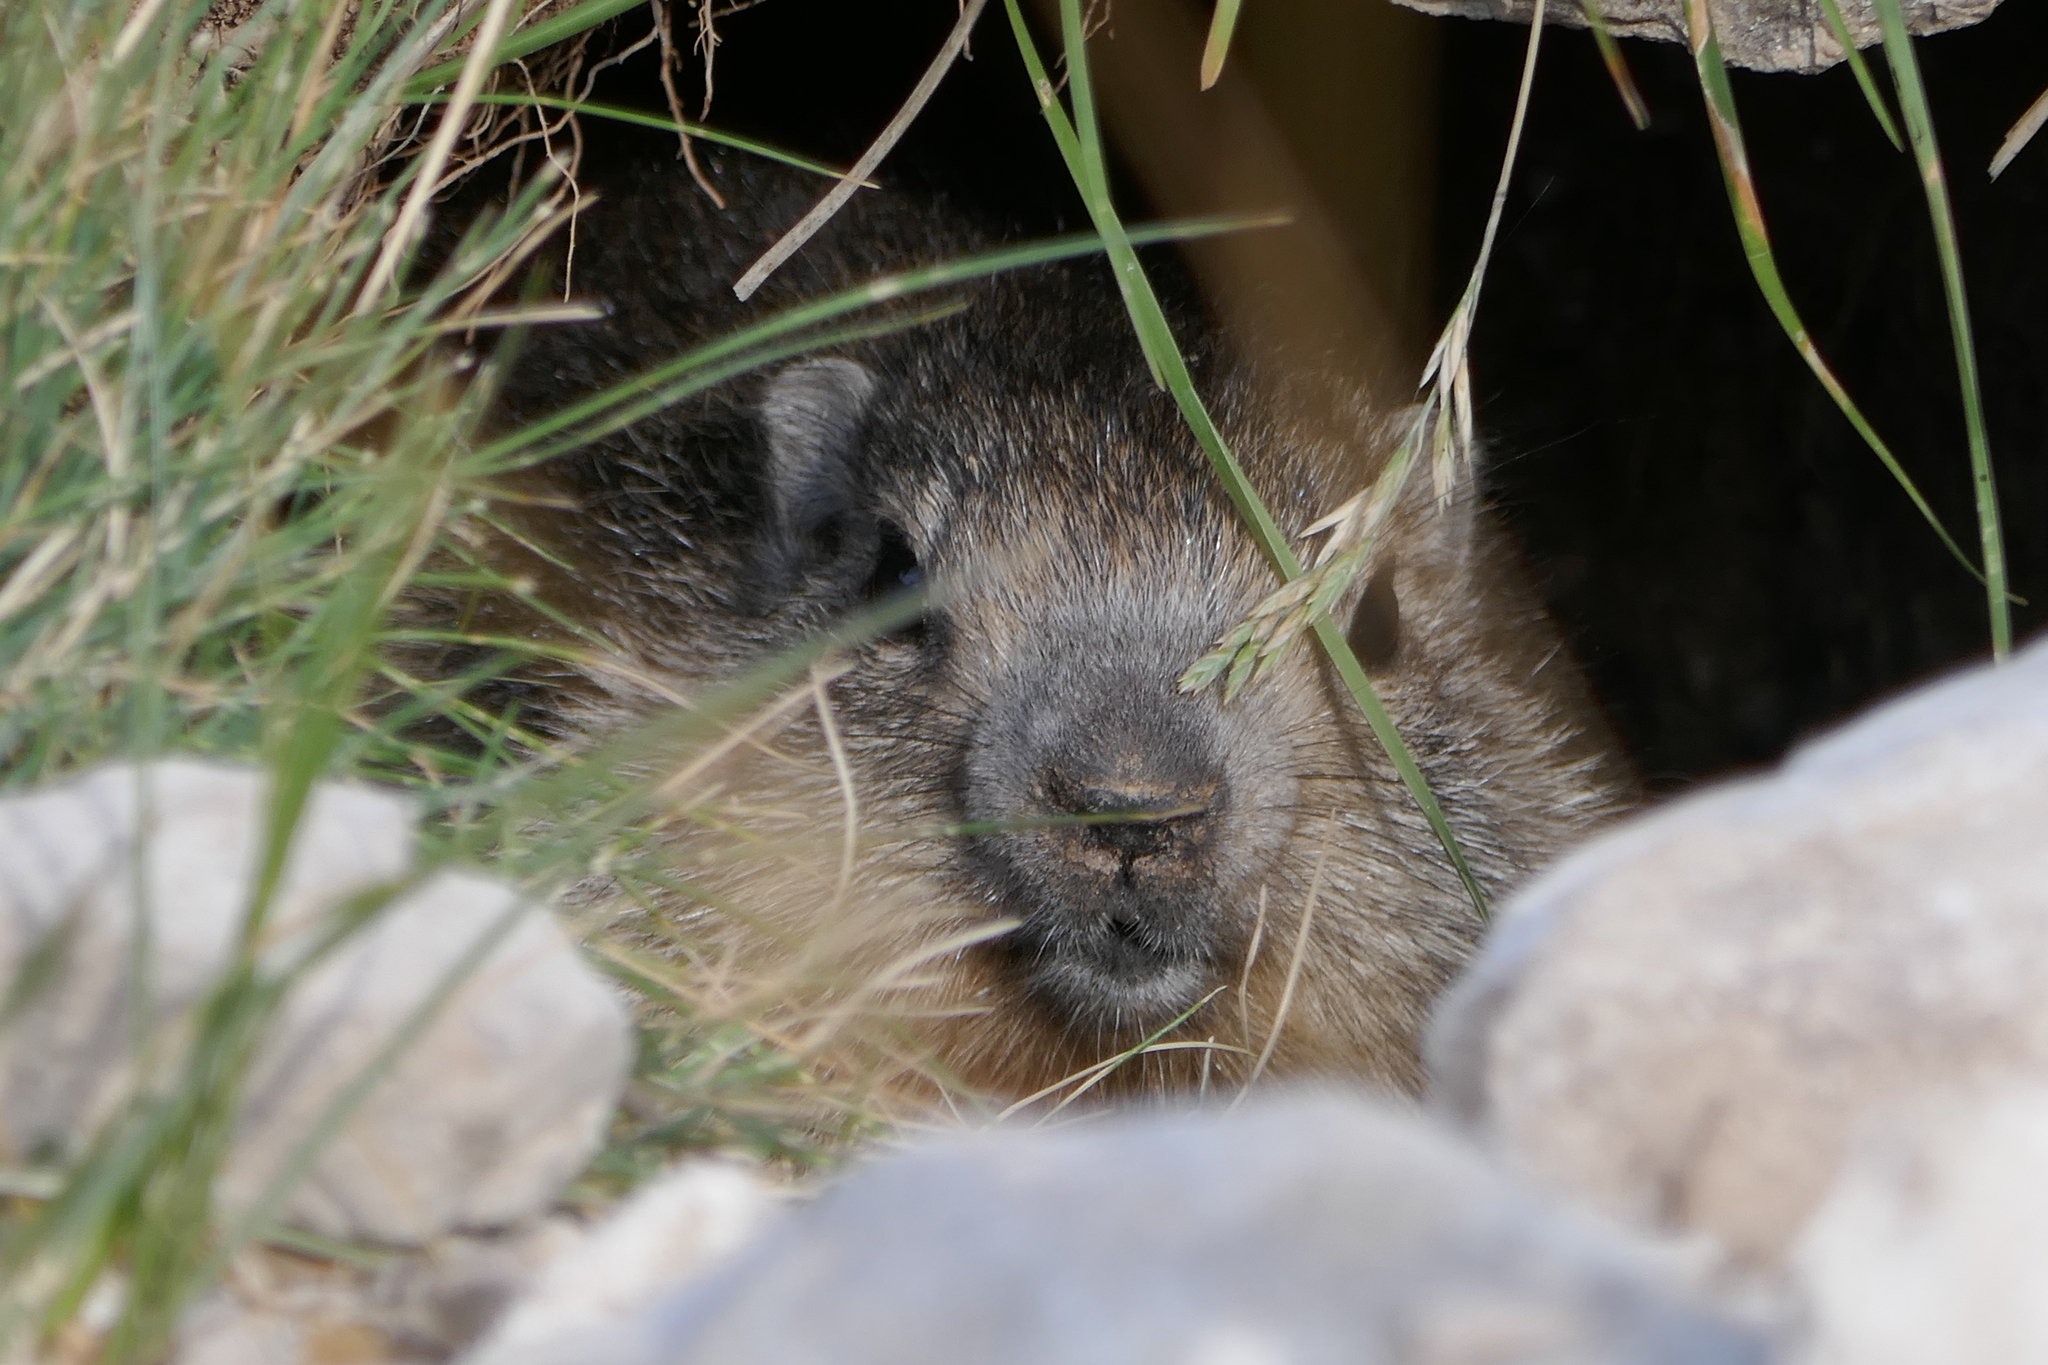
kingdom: Animalia
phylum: Chordata
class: Mammalia
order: Rodentia
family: Sciuridae
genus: Marmota
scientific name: Marmota marmota
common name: Alpine marmot
